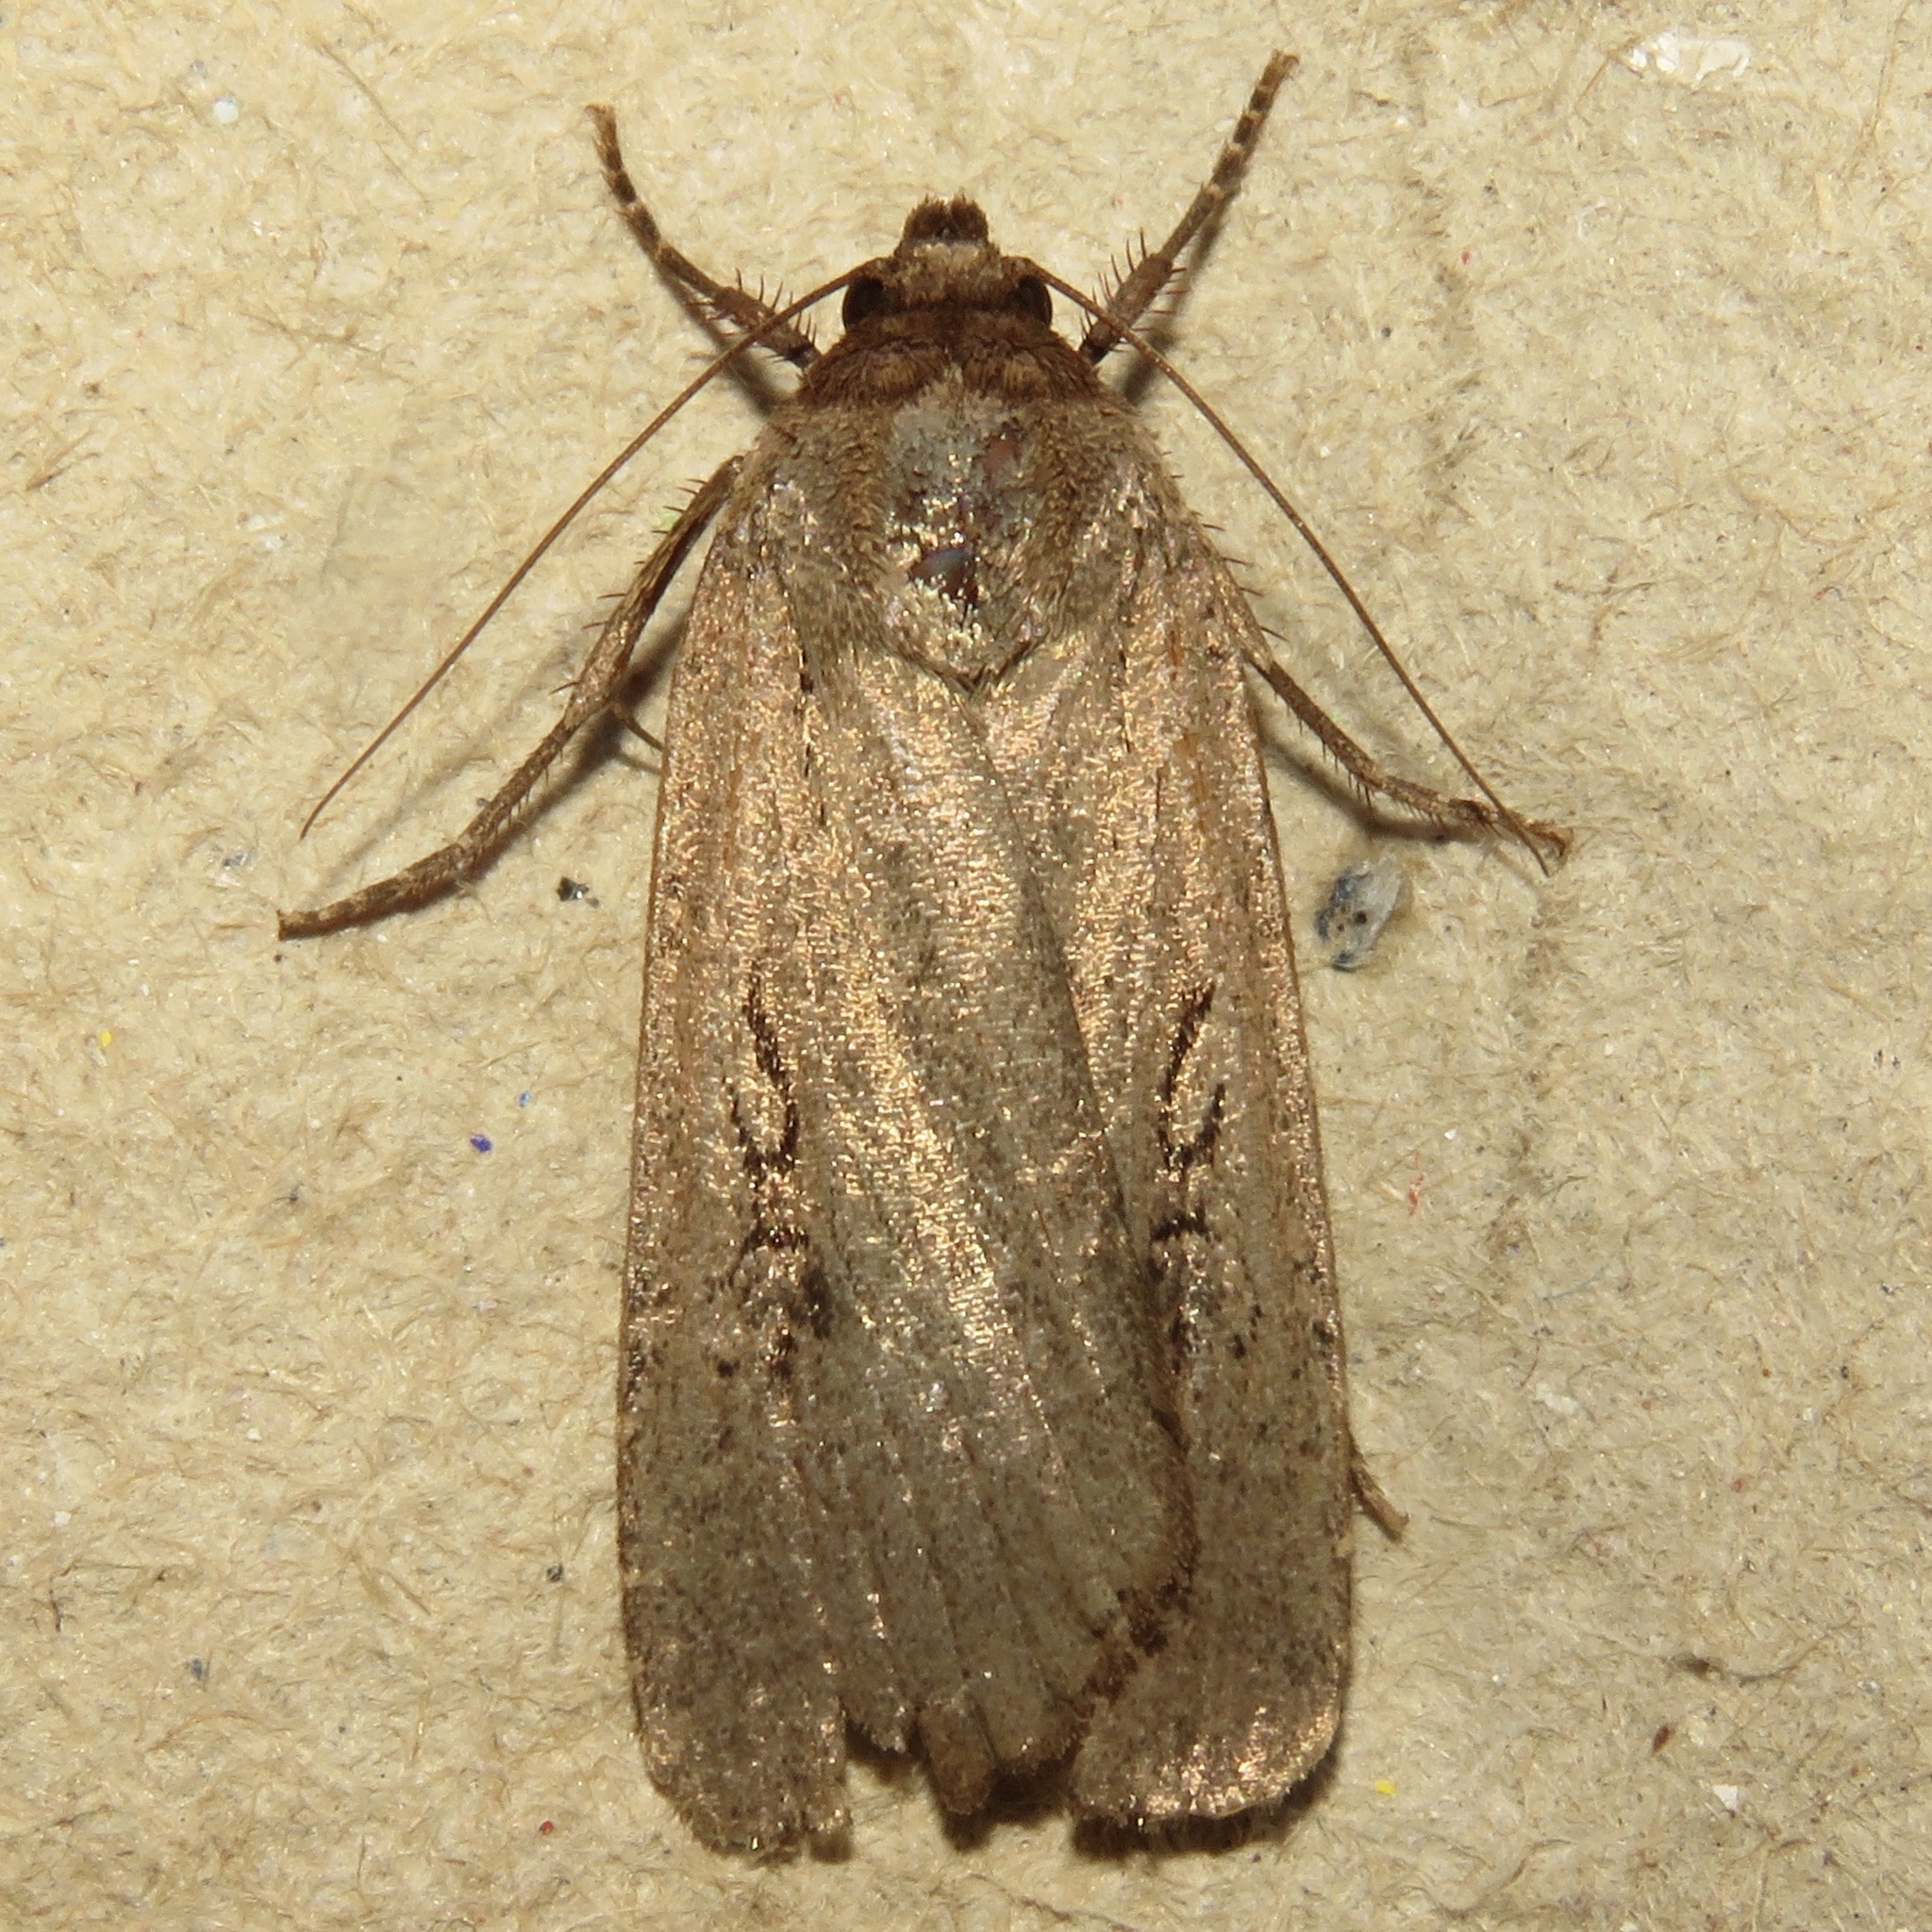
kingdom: Animalia
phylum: Arthropoda
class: Insecta
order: Lepidoptera
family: Noctuidae
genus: Spaelotis
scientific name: Spaelotis clandestina
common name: Clandestine dart
